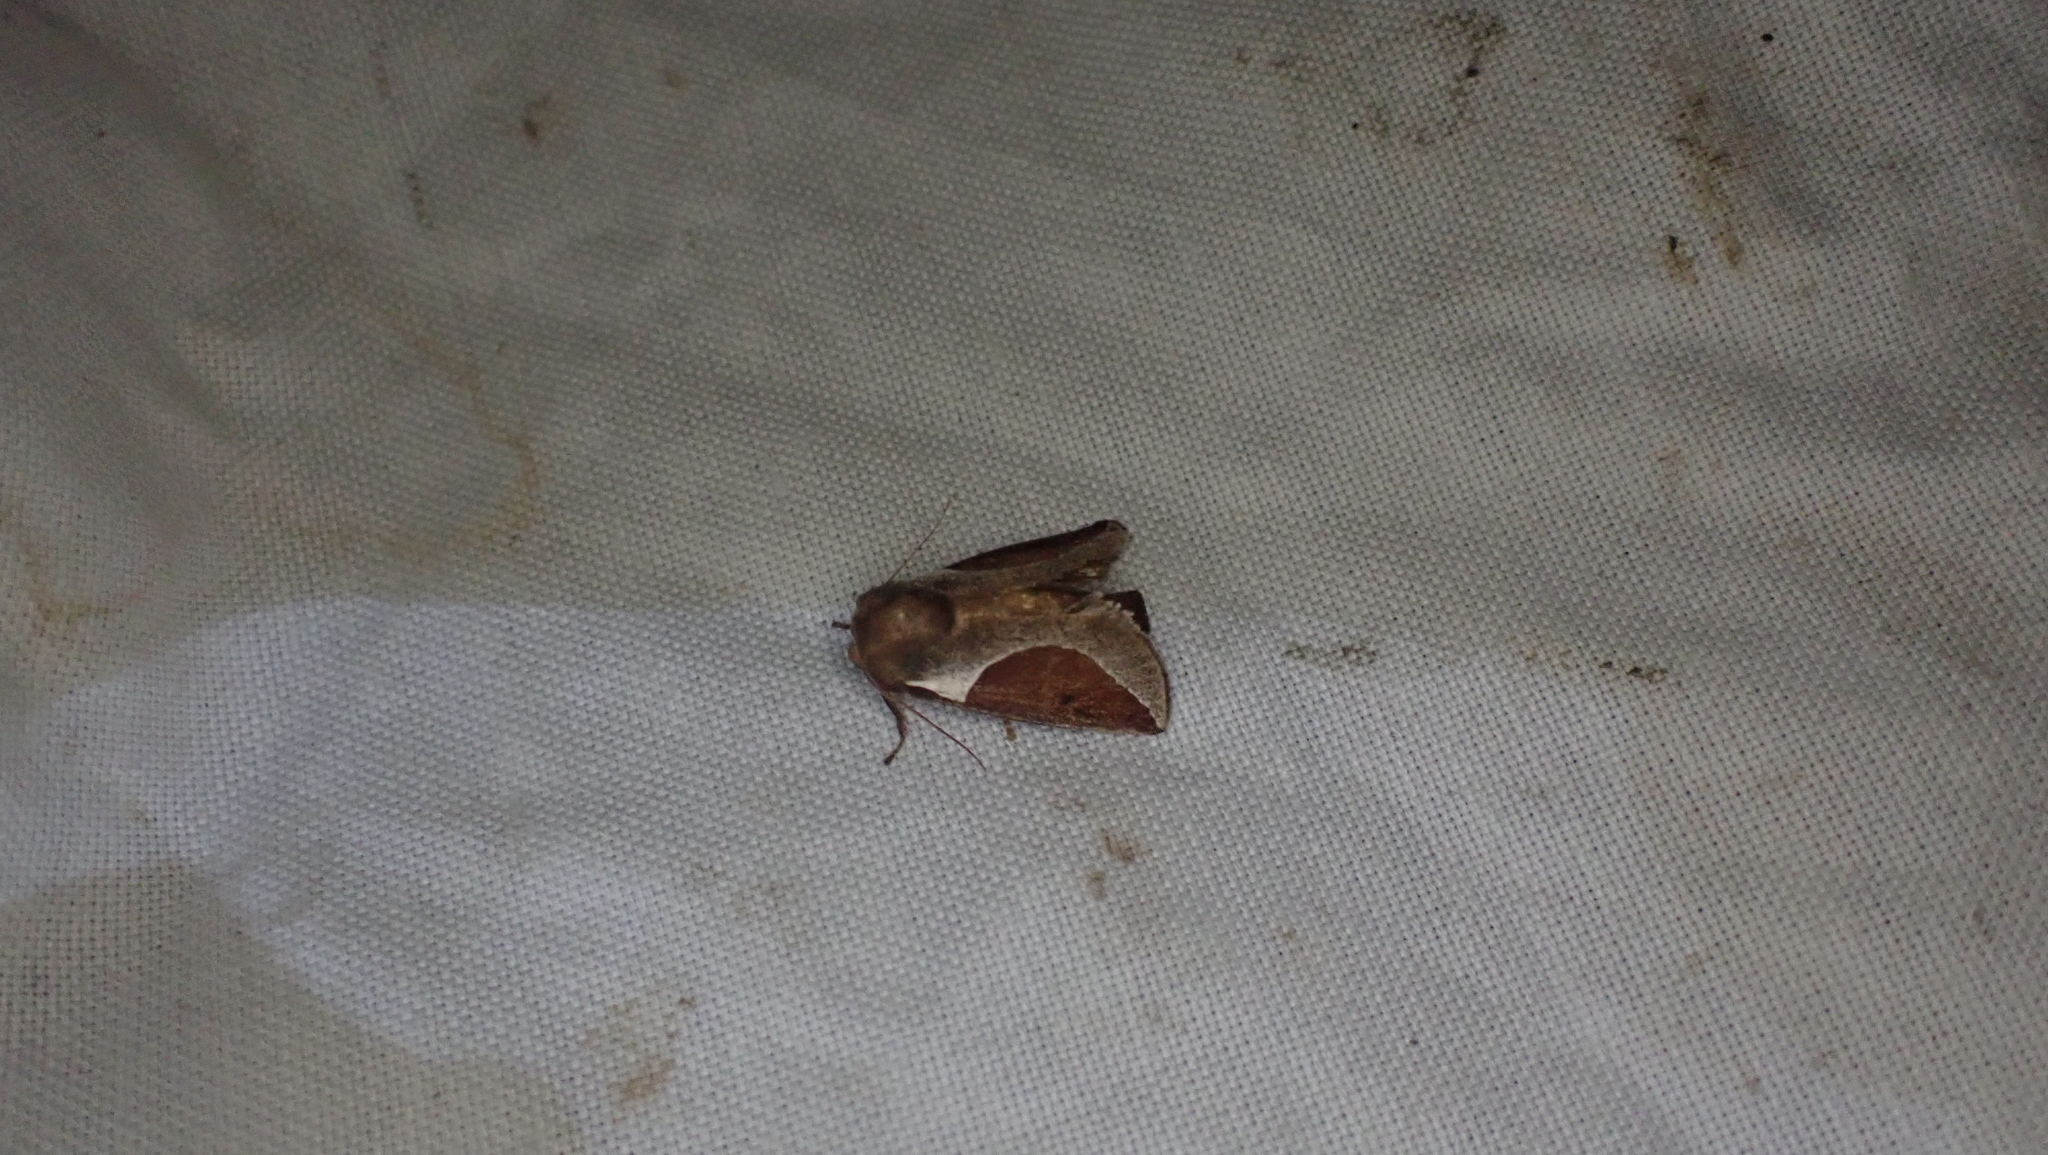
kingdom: Animalia
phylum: Arthropoda
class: Insecta
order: Lepidoptera
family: Limacodidae
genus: Prolimacodes
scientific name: Prolimacodes badia
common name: Skiff moth
